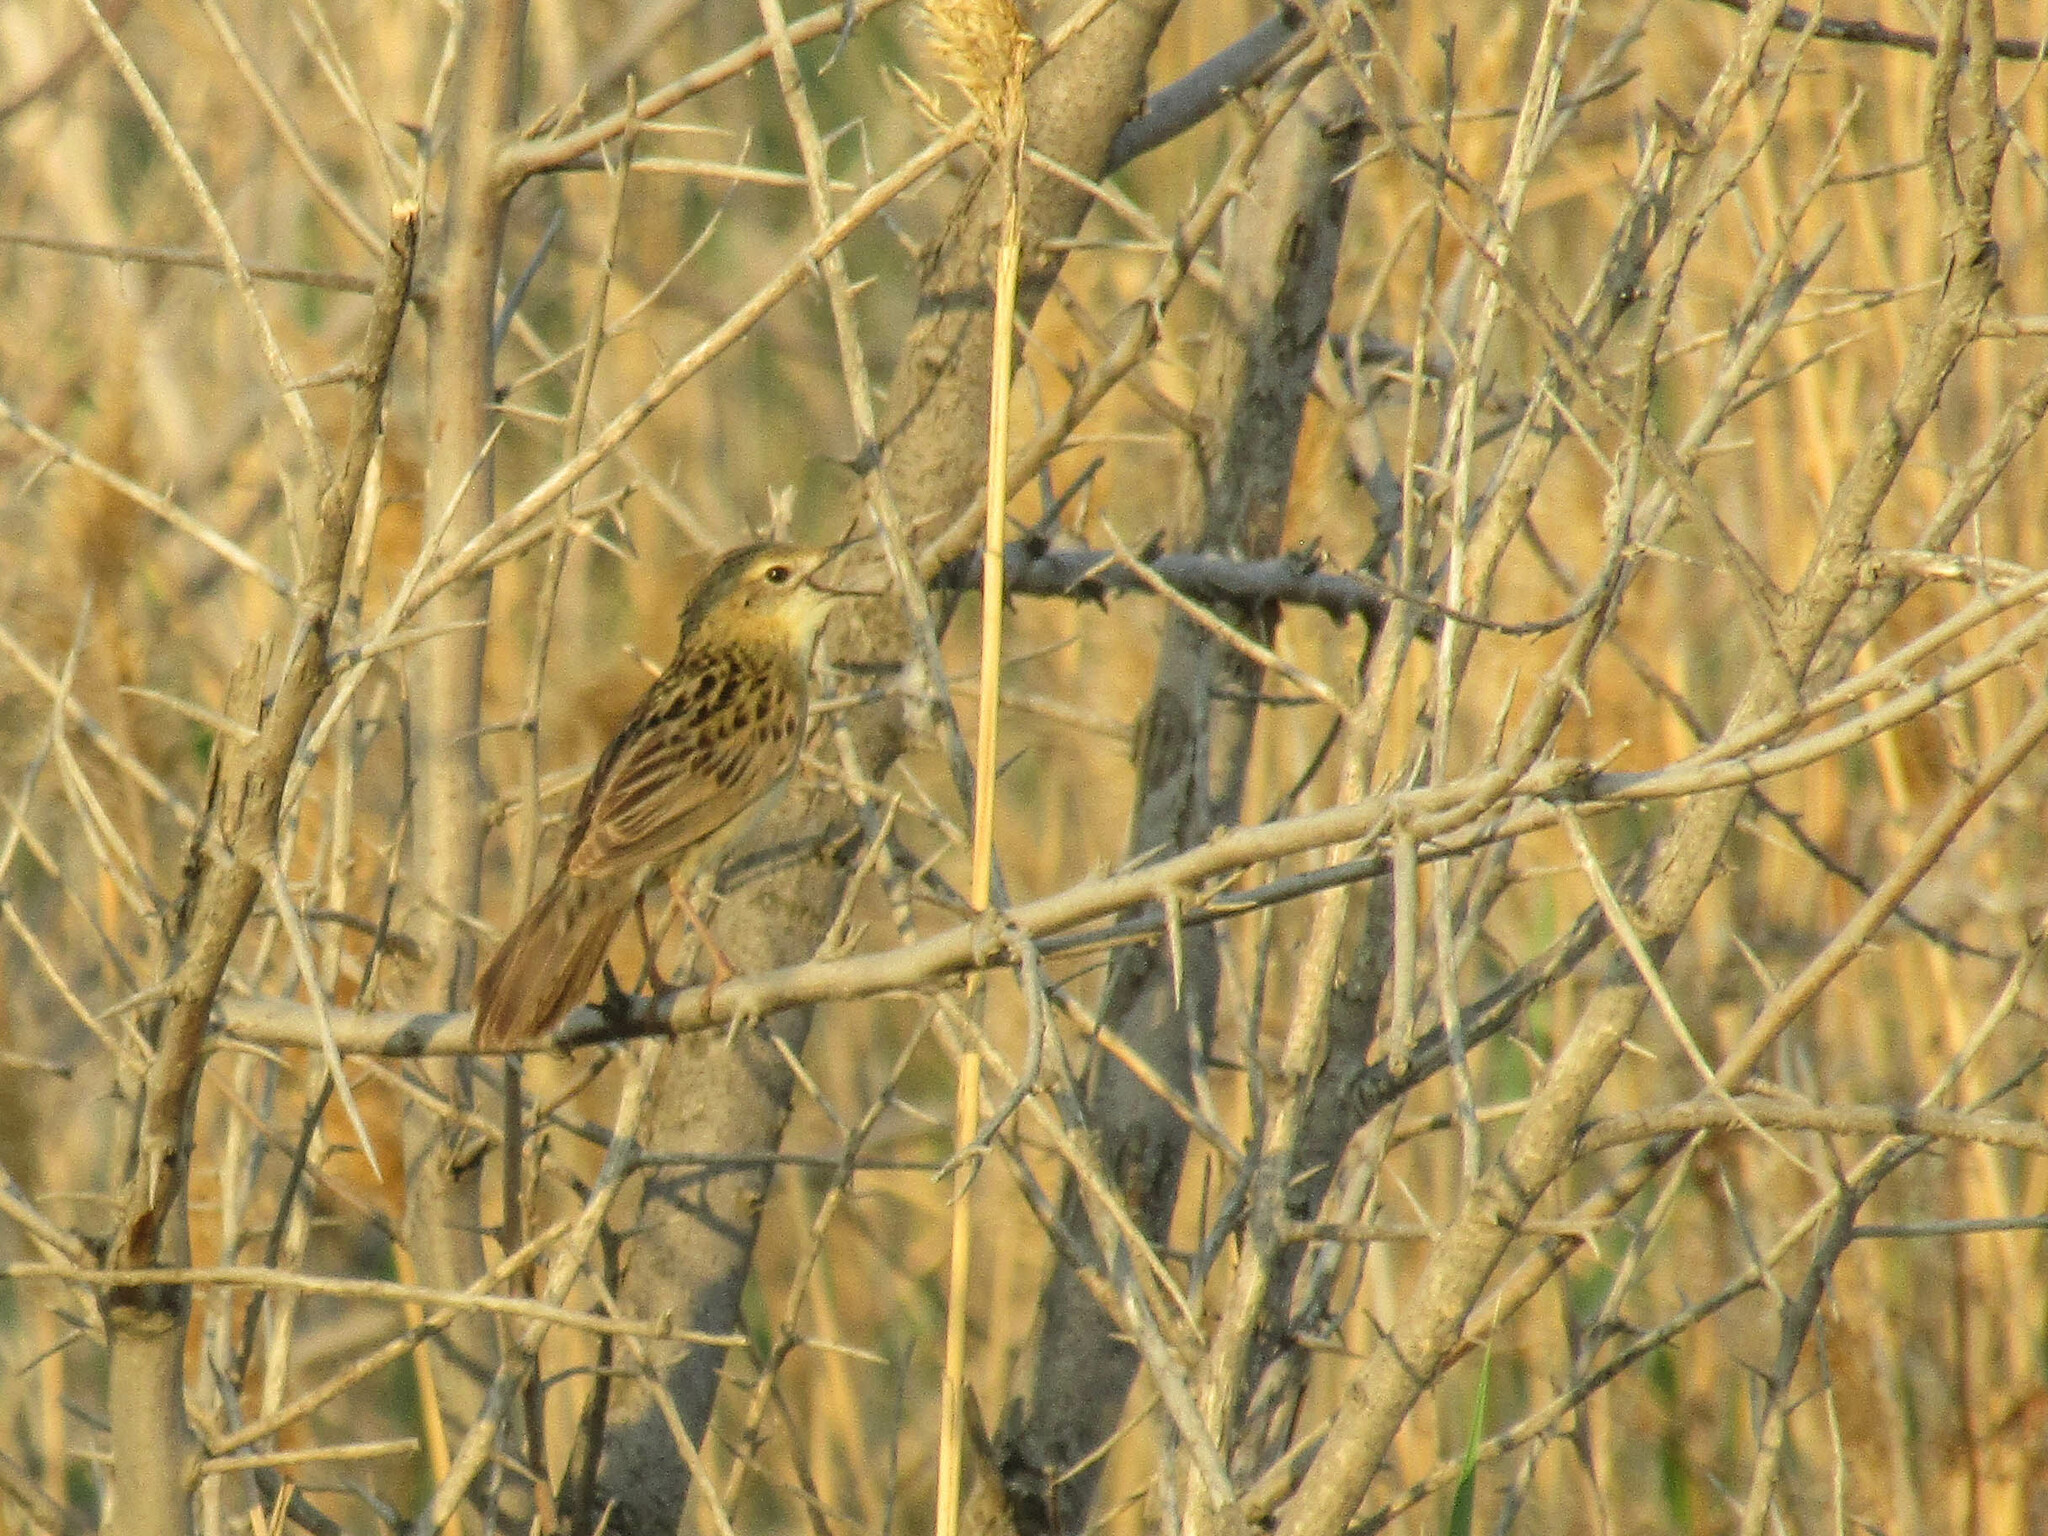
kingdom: Animalia
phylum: Chordata
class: Aves
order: Passeriformes
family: Locustellidae
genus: Locustella
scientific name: Locustella naevia
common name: Common grasshopper warbler
